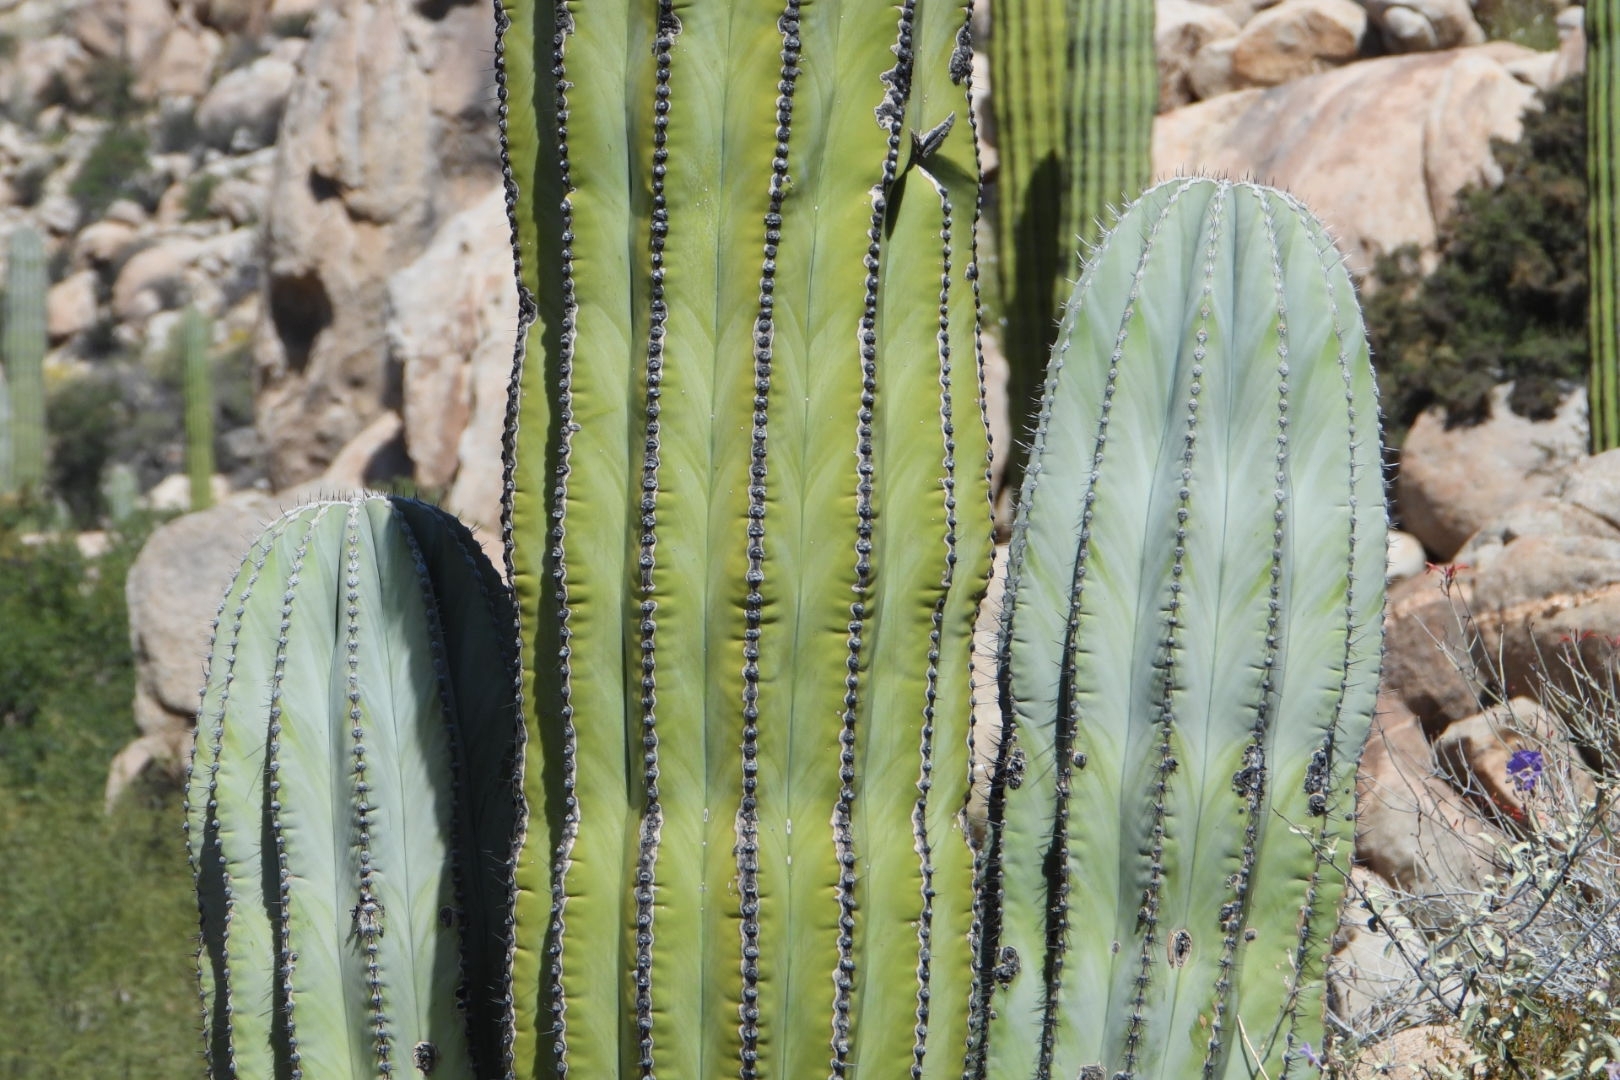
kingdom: Plantae
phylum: Tracheophyta
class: Magnoliopsida
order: Caryophyllales
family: Cactaceae
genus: Pachycereus
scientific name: Pachycereus pringlei
